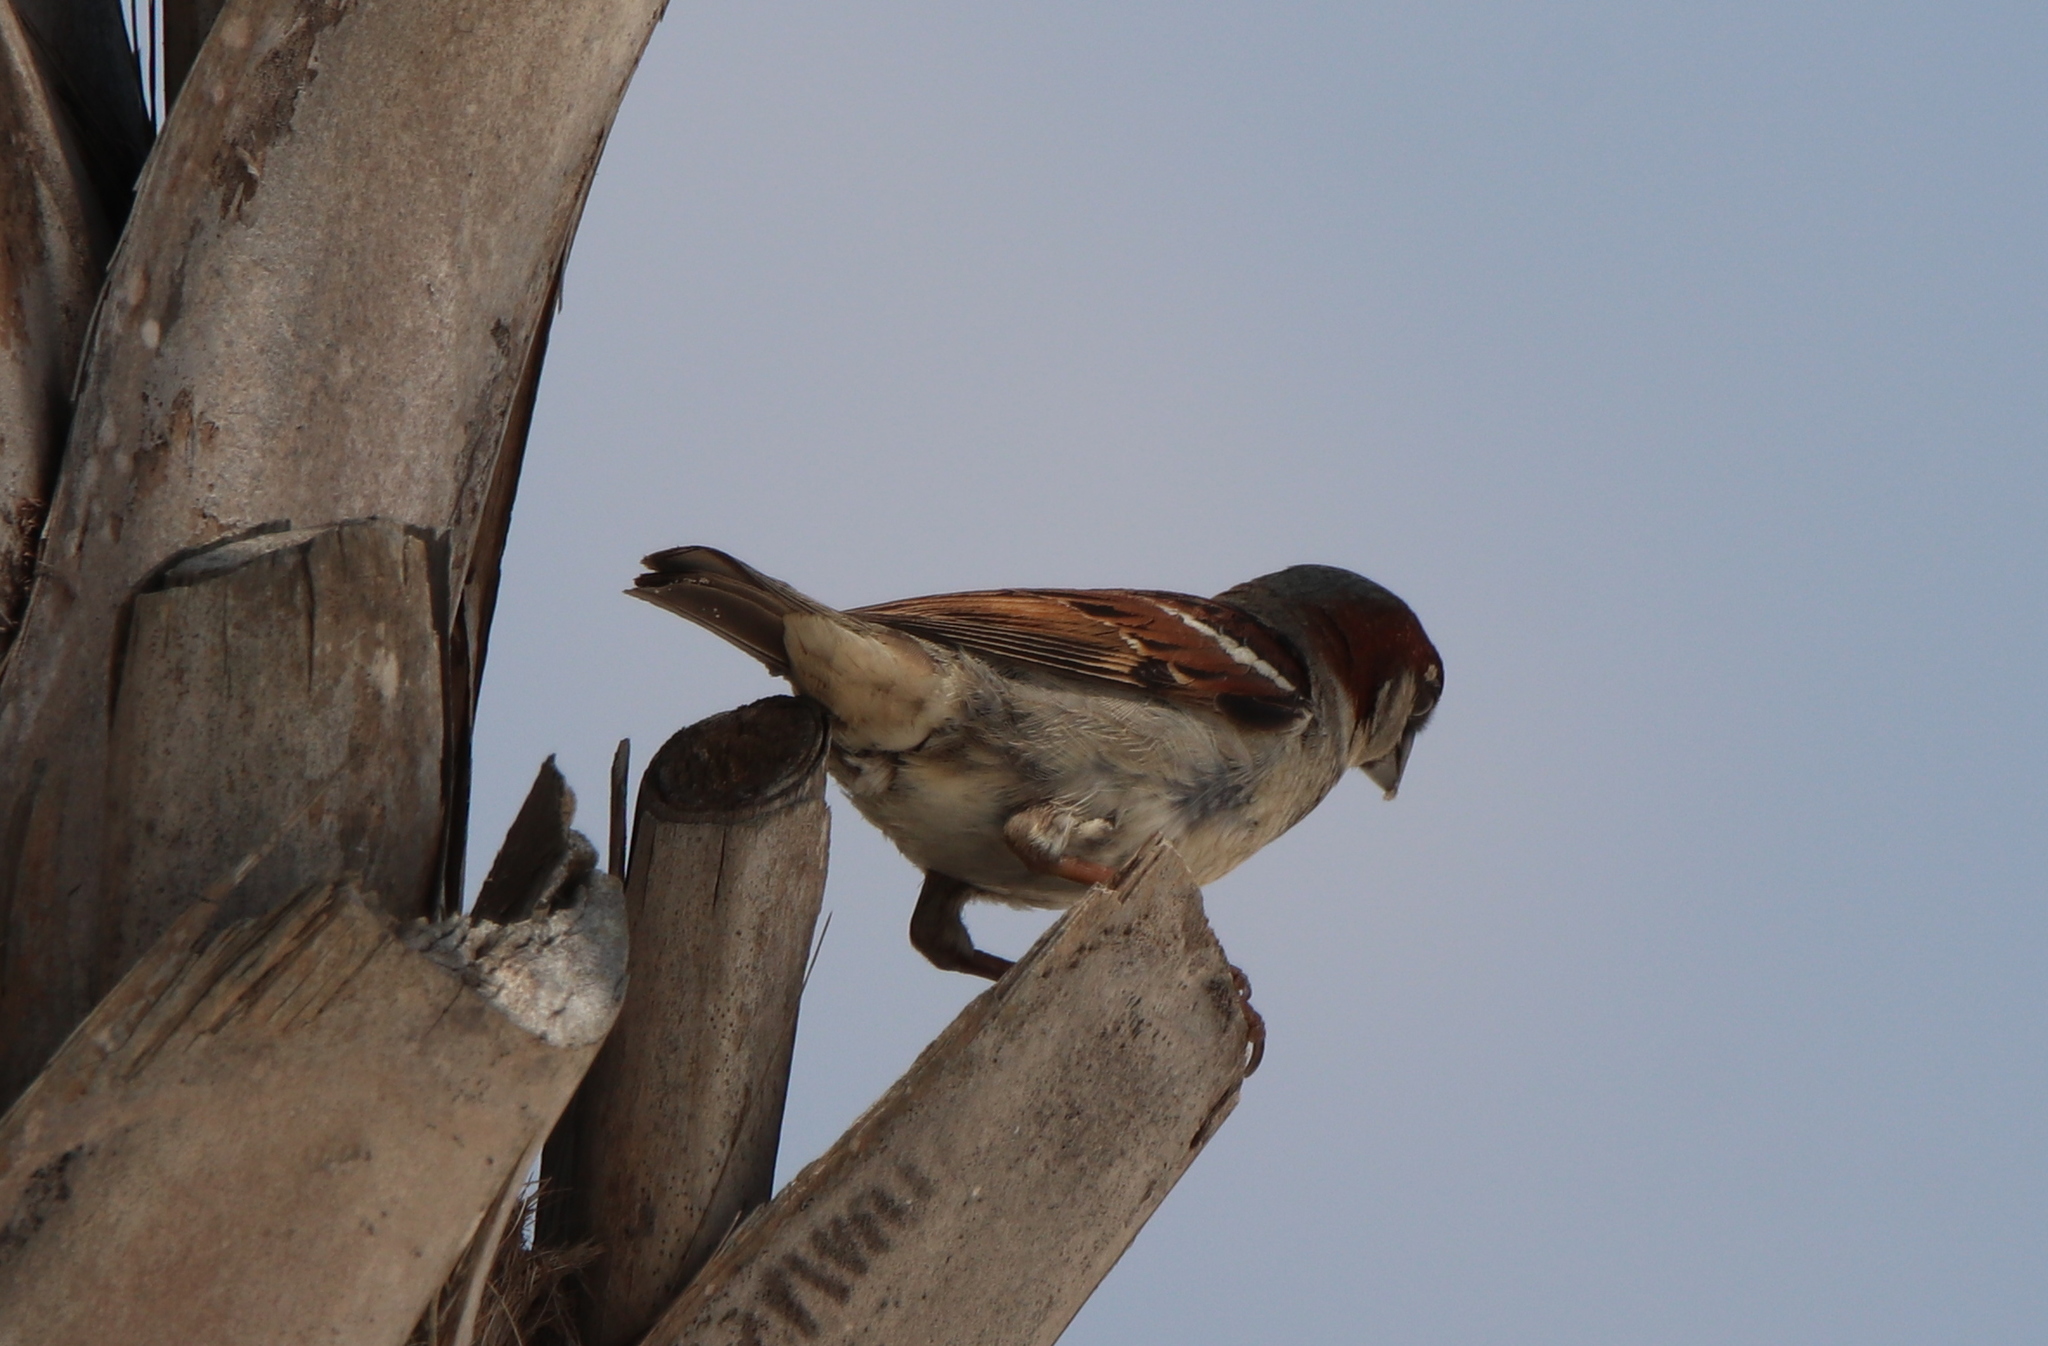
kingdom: Animalia
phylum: Chordata
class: Aves
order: Passeriformes
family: Passeridae
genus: Passer
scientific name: Passer domesticus
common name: House sparrow
